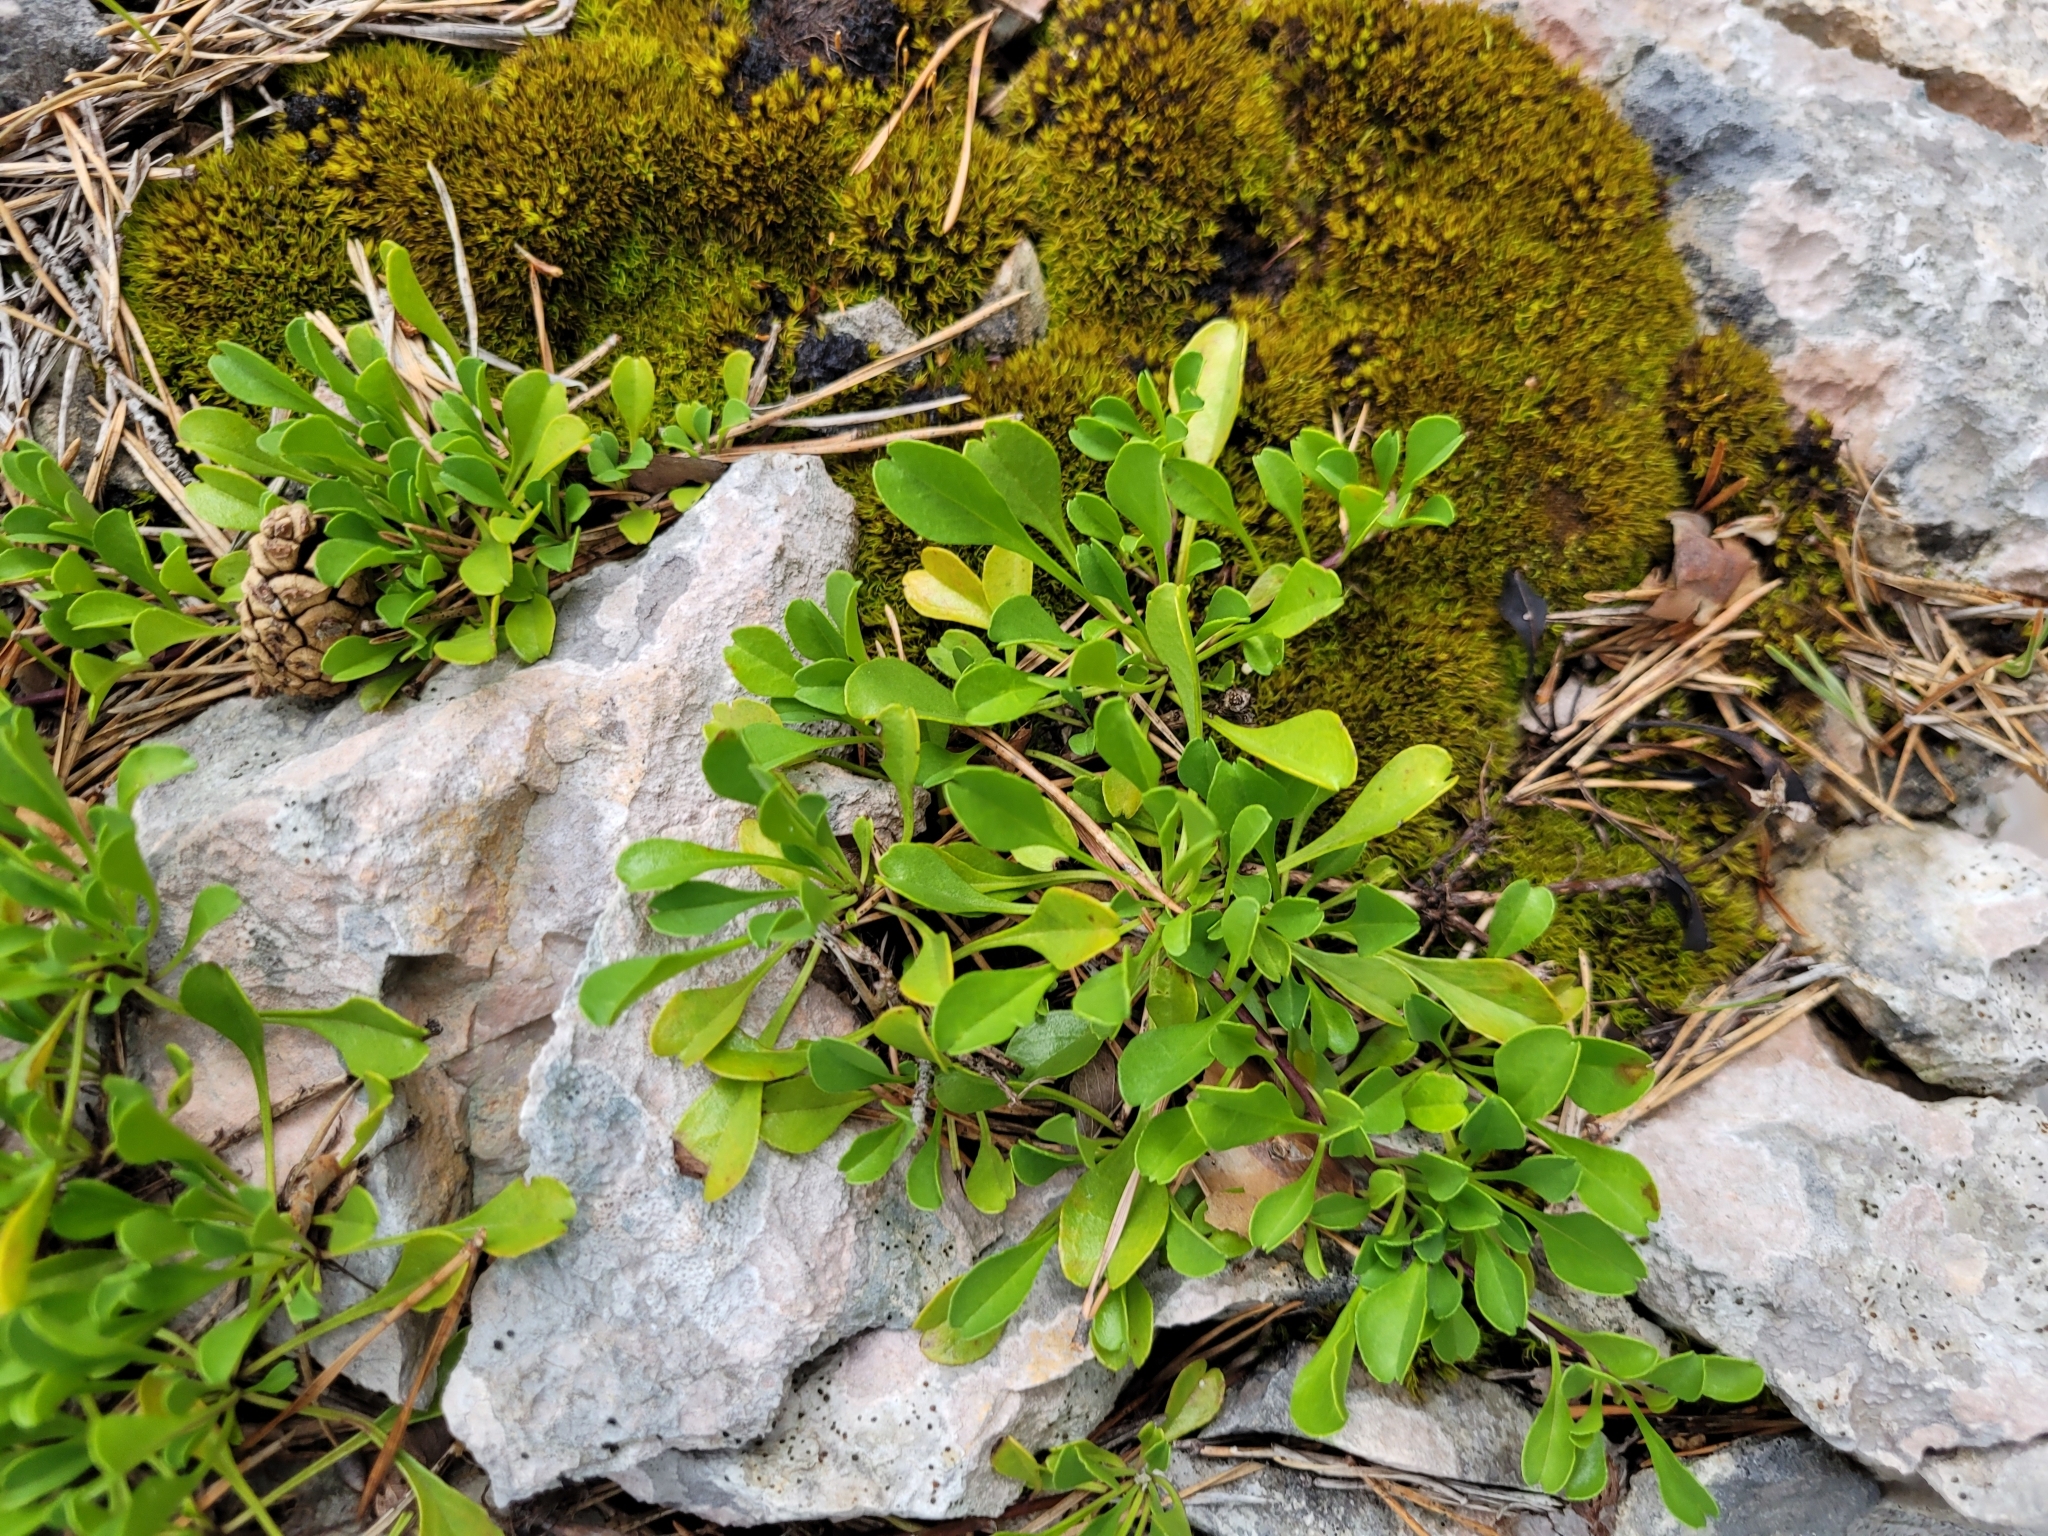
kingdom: Plantae
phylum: Tracheophyta
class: Magnoliopsida
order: Lamiales
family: Plantaginaceae
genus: Globularia
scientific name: Globularia cordifolia
